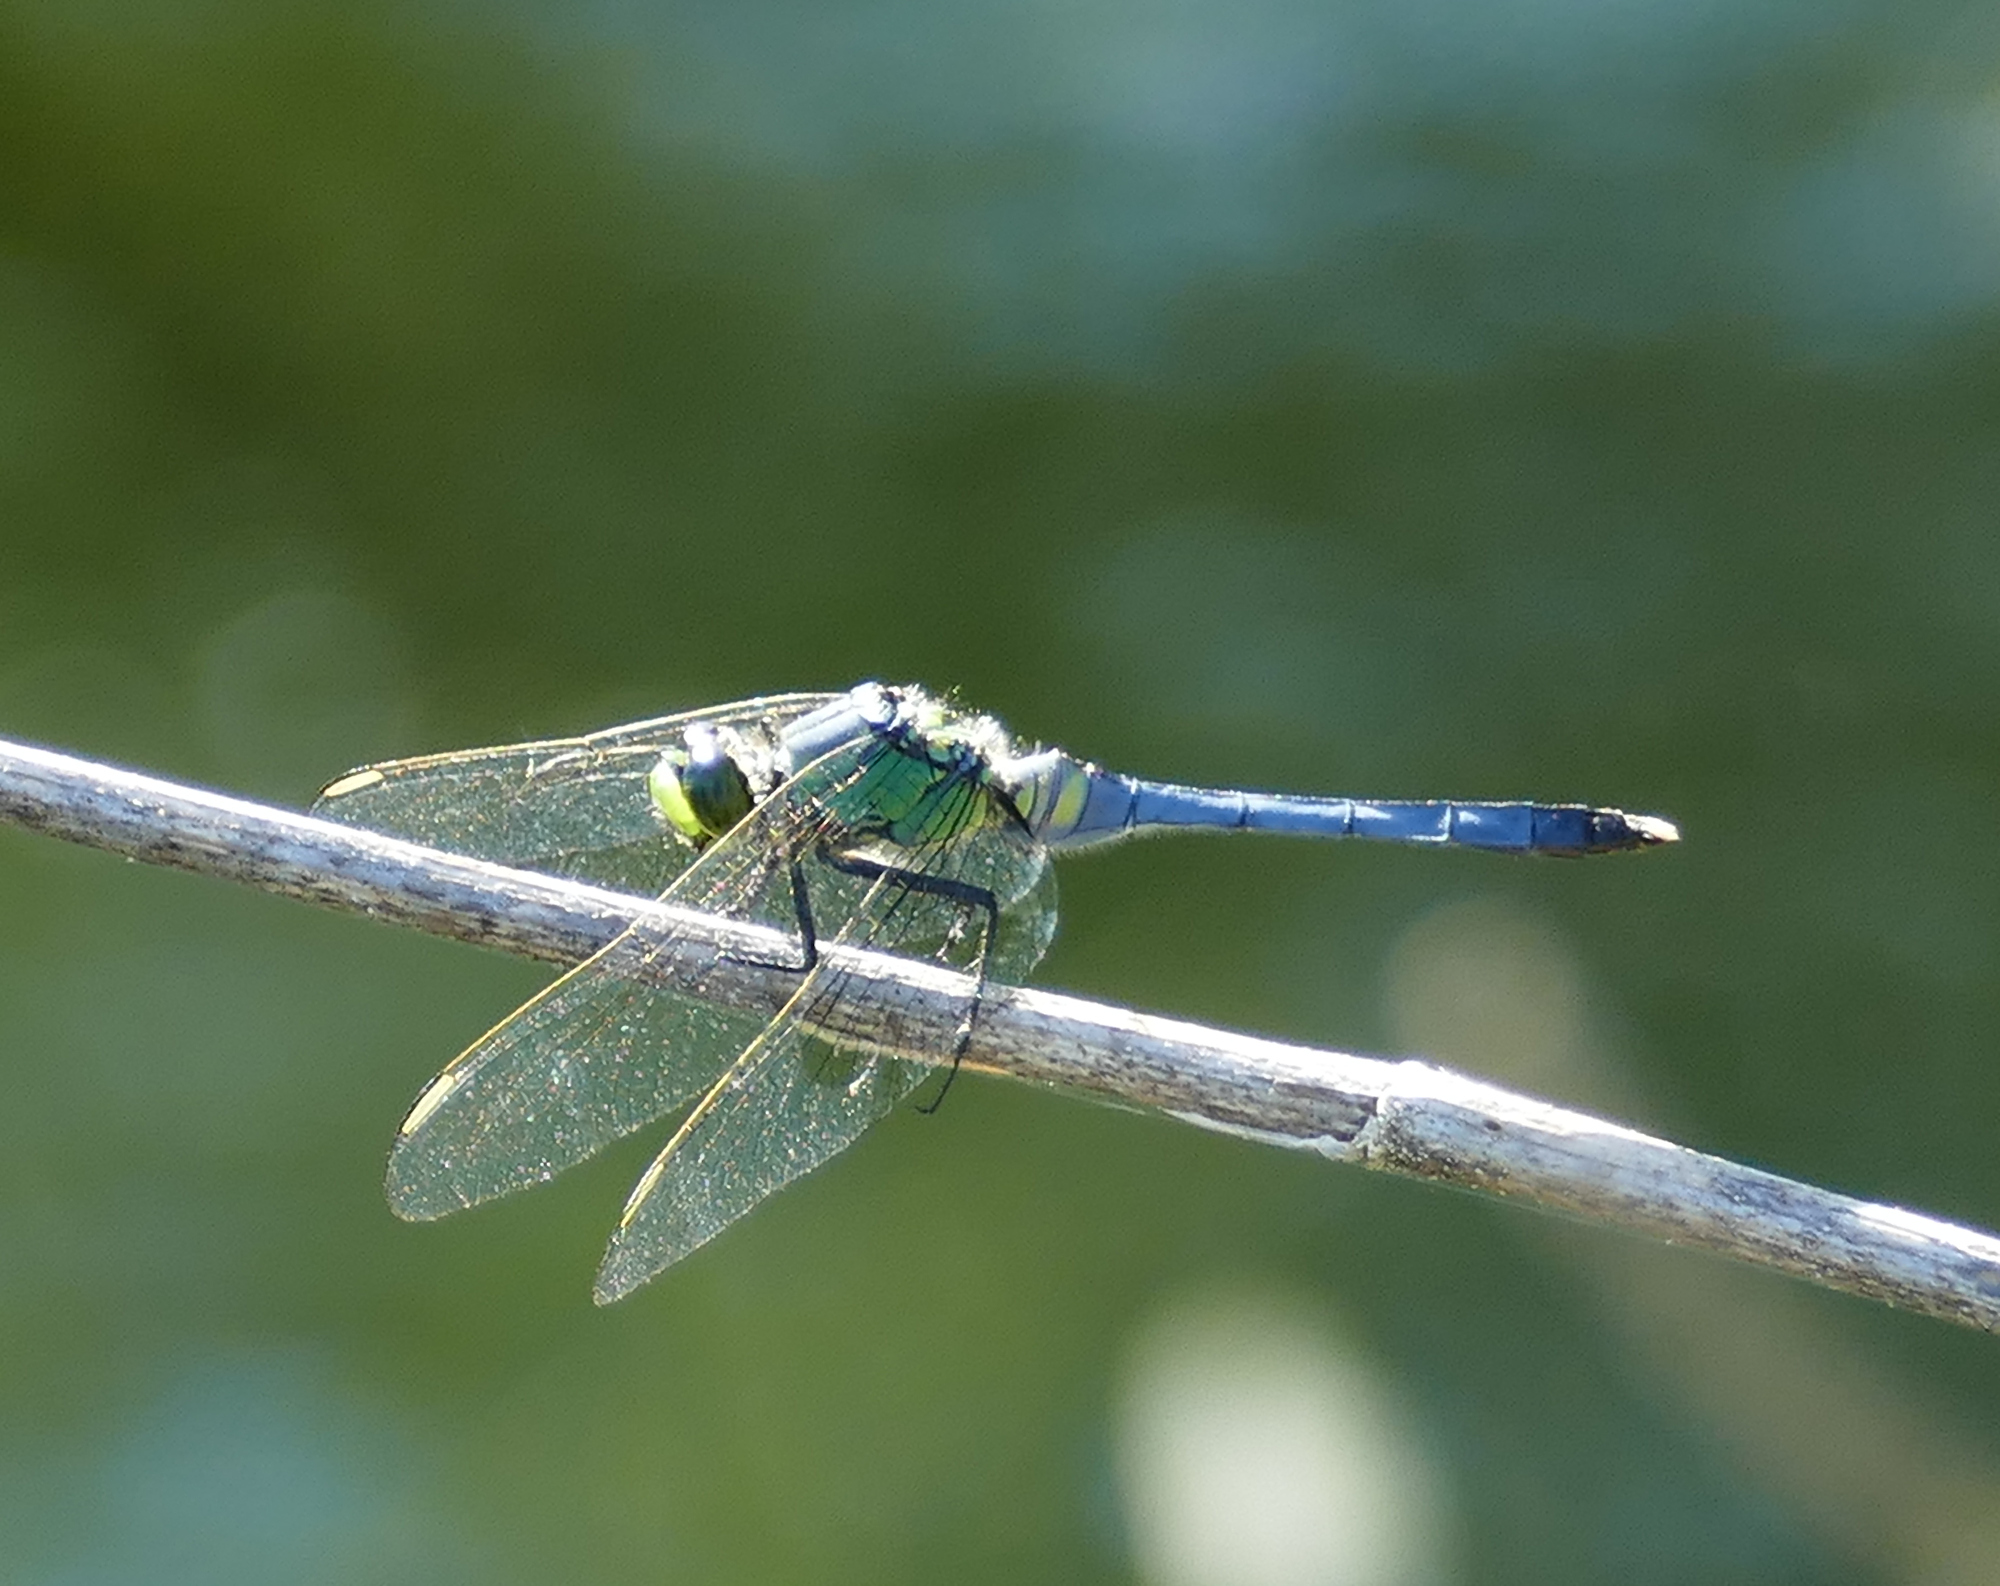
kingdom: Animalia
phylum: Arthropoda
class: Insecta
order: Odonata
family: Libellulidae
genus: Erythemis
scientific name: Erythemis simplicicollis
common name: Eastern pondhawk
